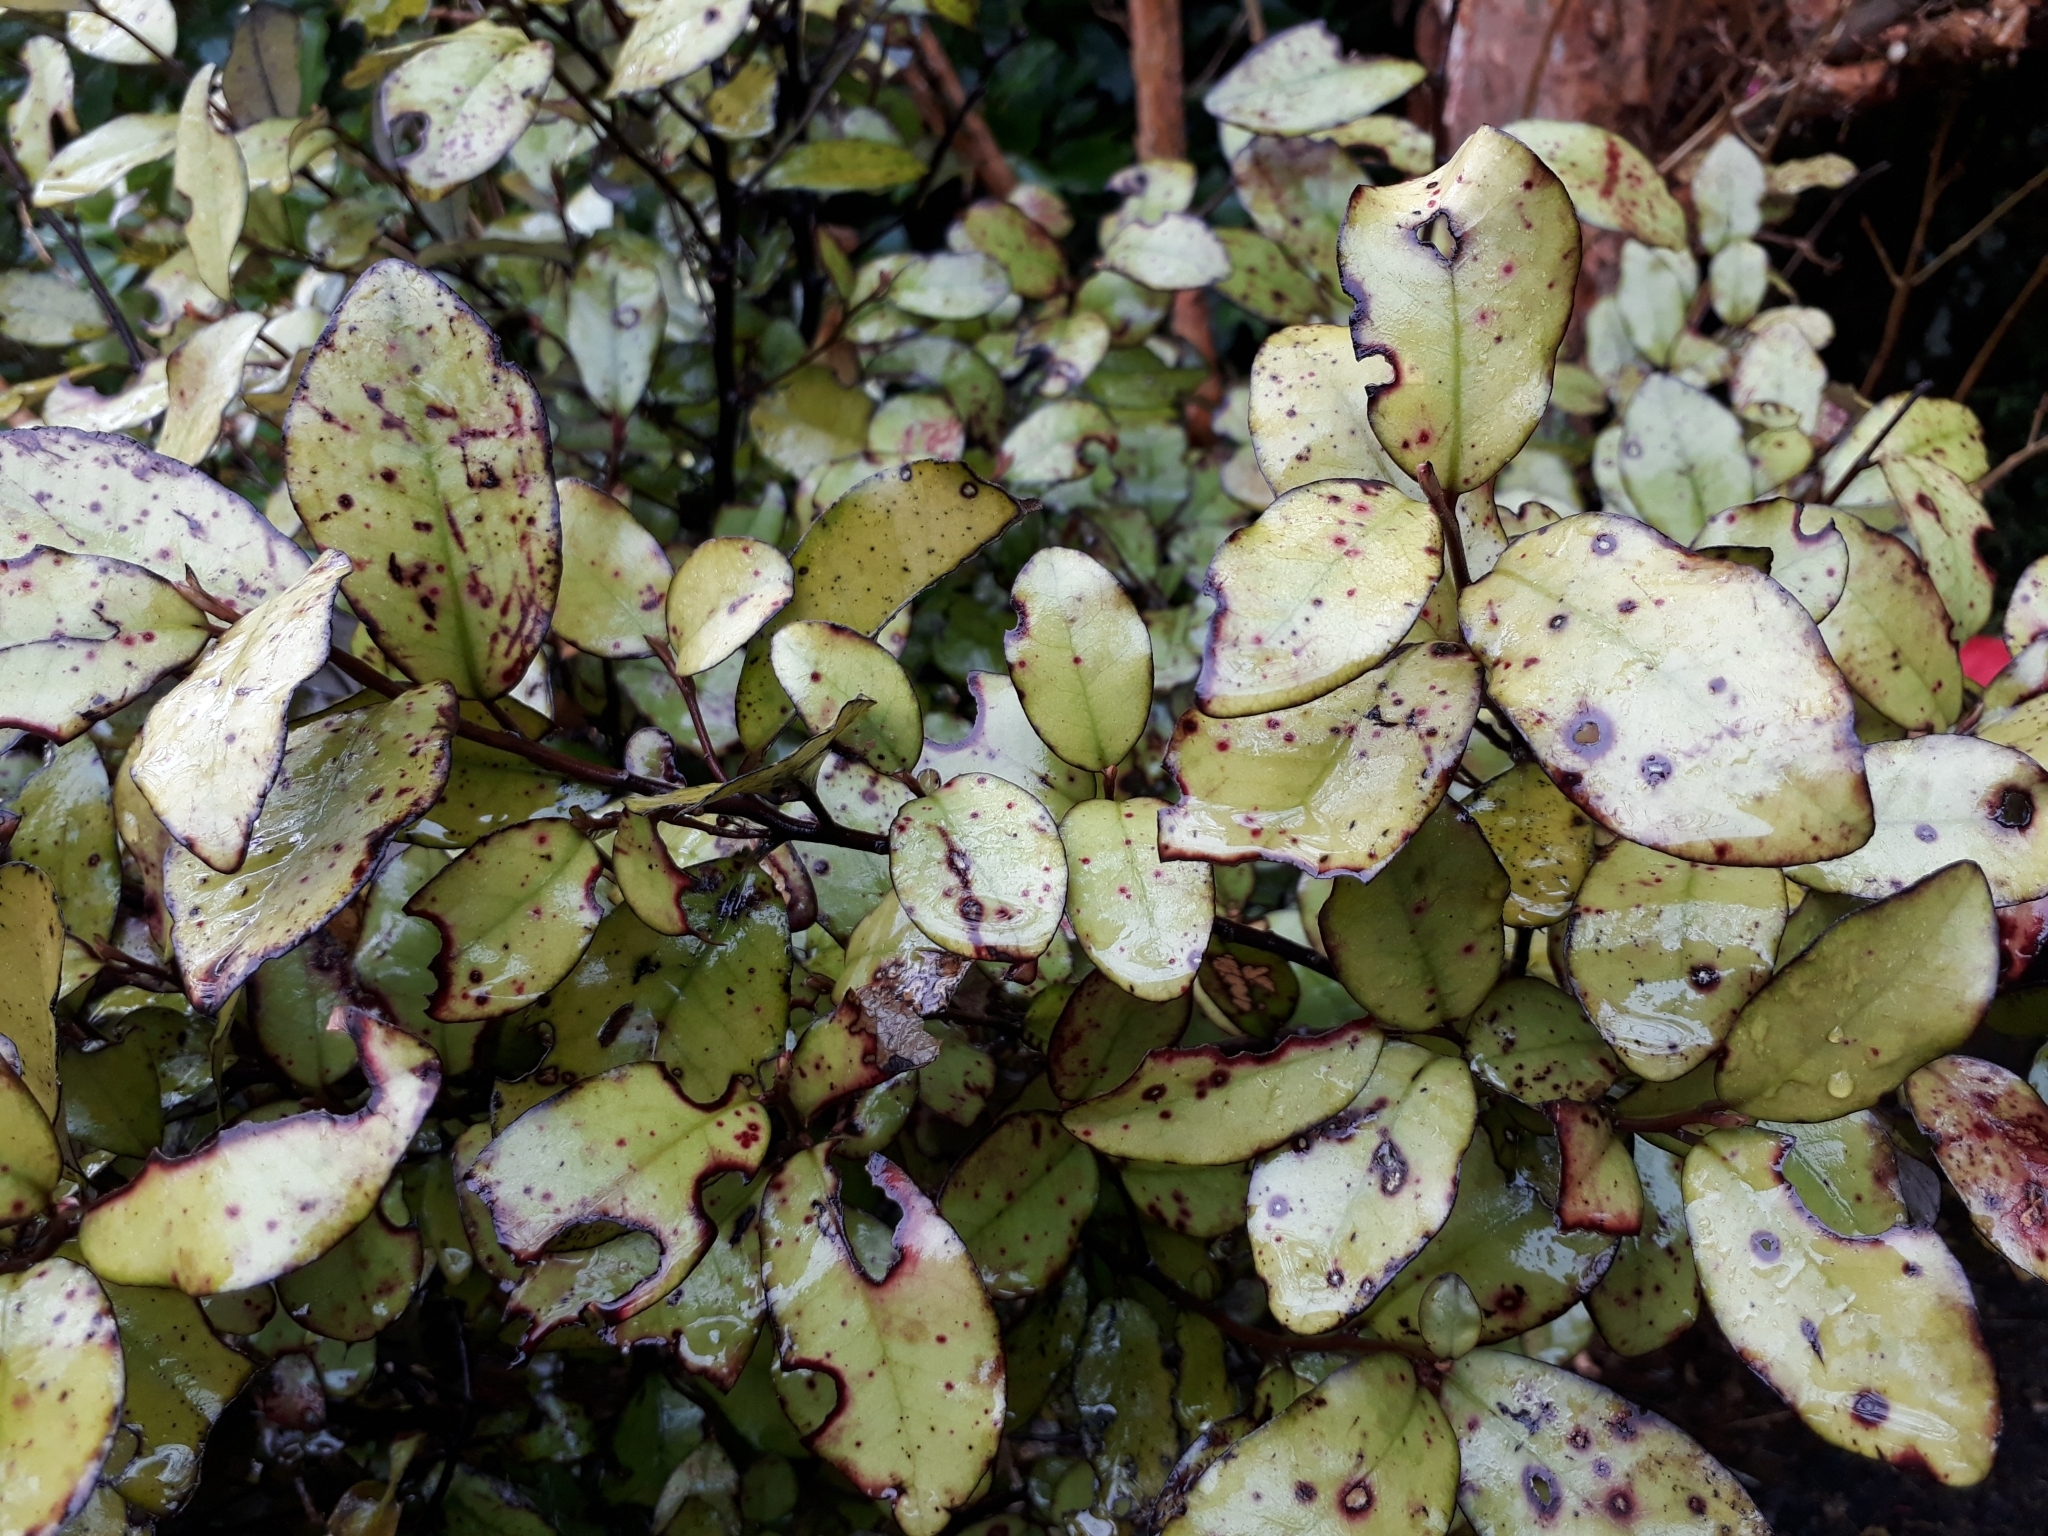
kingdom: Plantae
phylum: Tracheophyta
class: Magnoliopsida
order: Canellales
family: Winteraceae
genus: Pseudowintera
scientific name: Pseudowintera colorata
